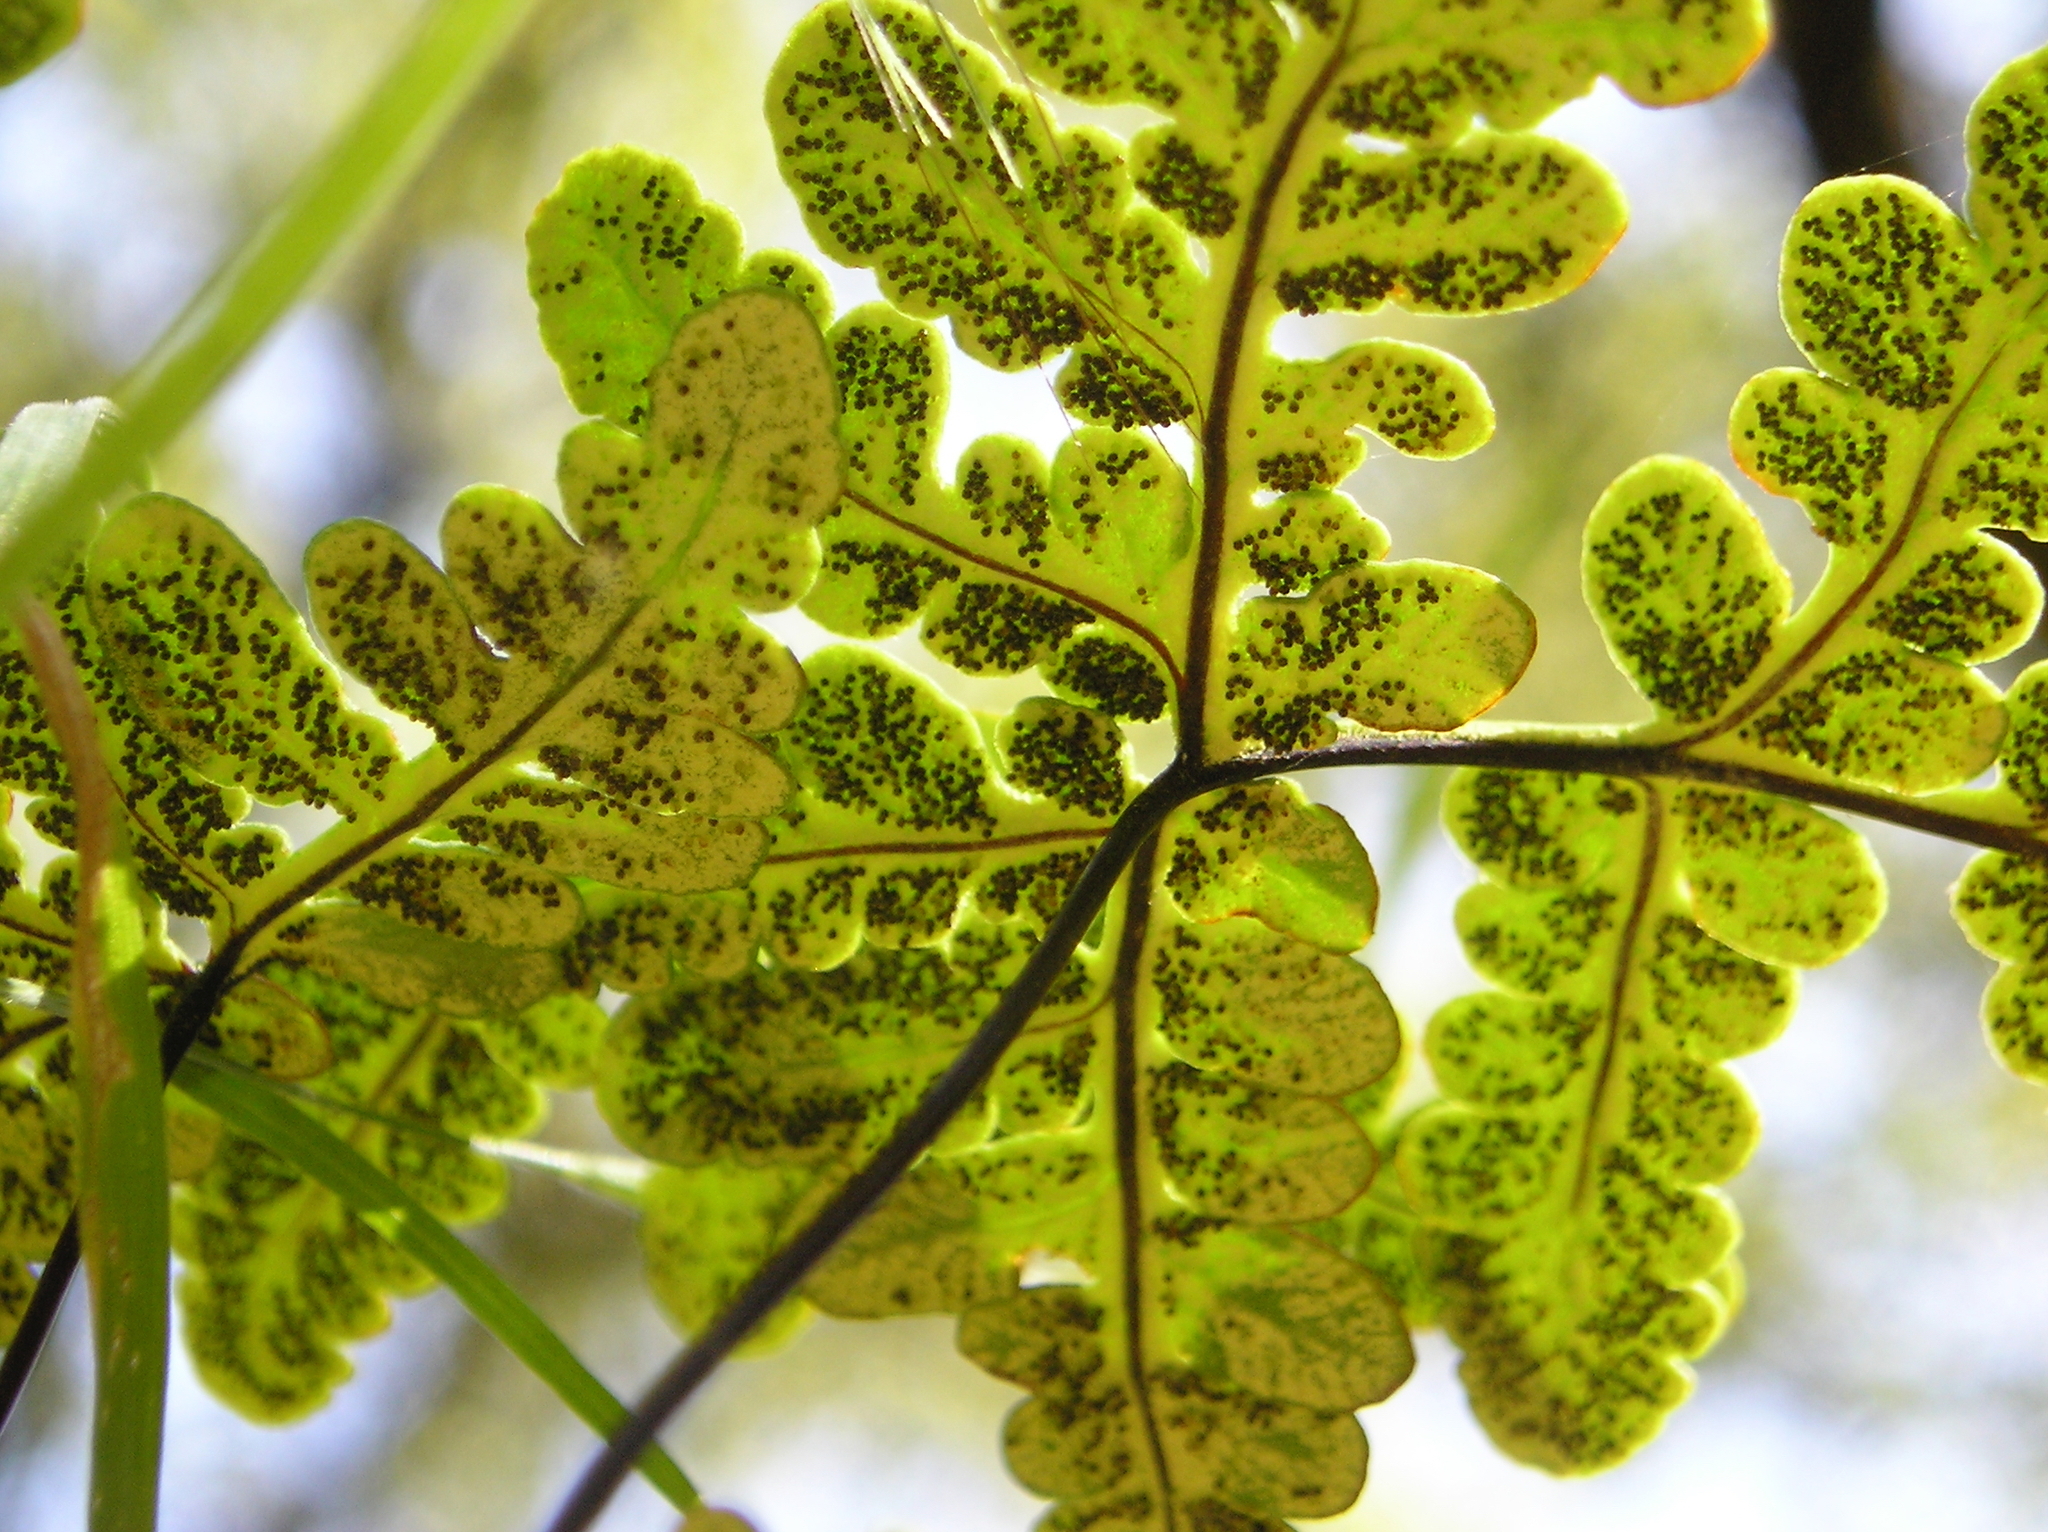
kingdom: Plantae
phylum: Tracheophyta
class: Polypodiopsida
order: Polypodiales
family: Pteridaceae
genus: Pentagramma
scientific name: Pentagramma triangularis
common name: Gold fern
